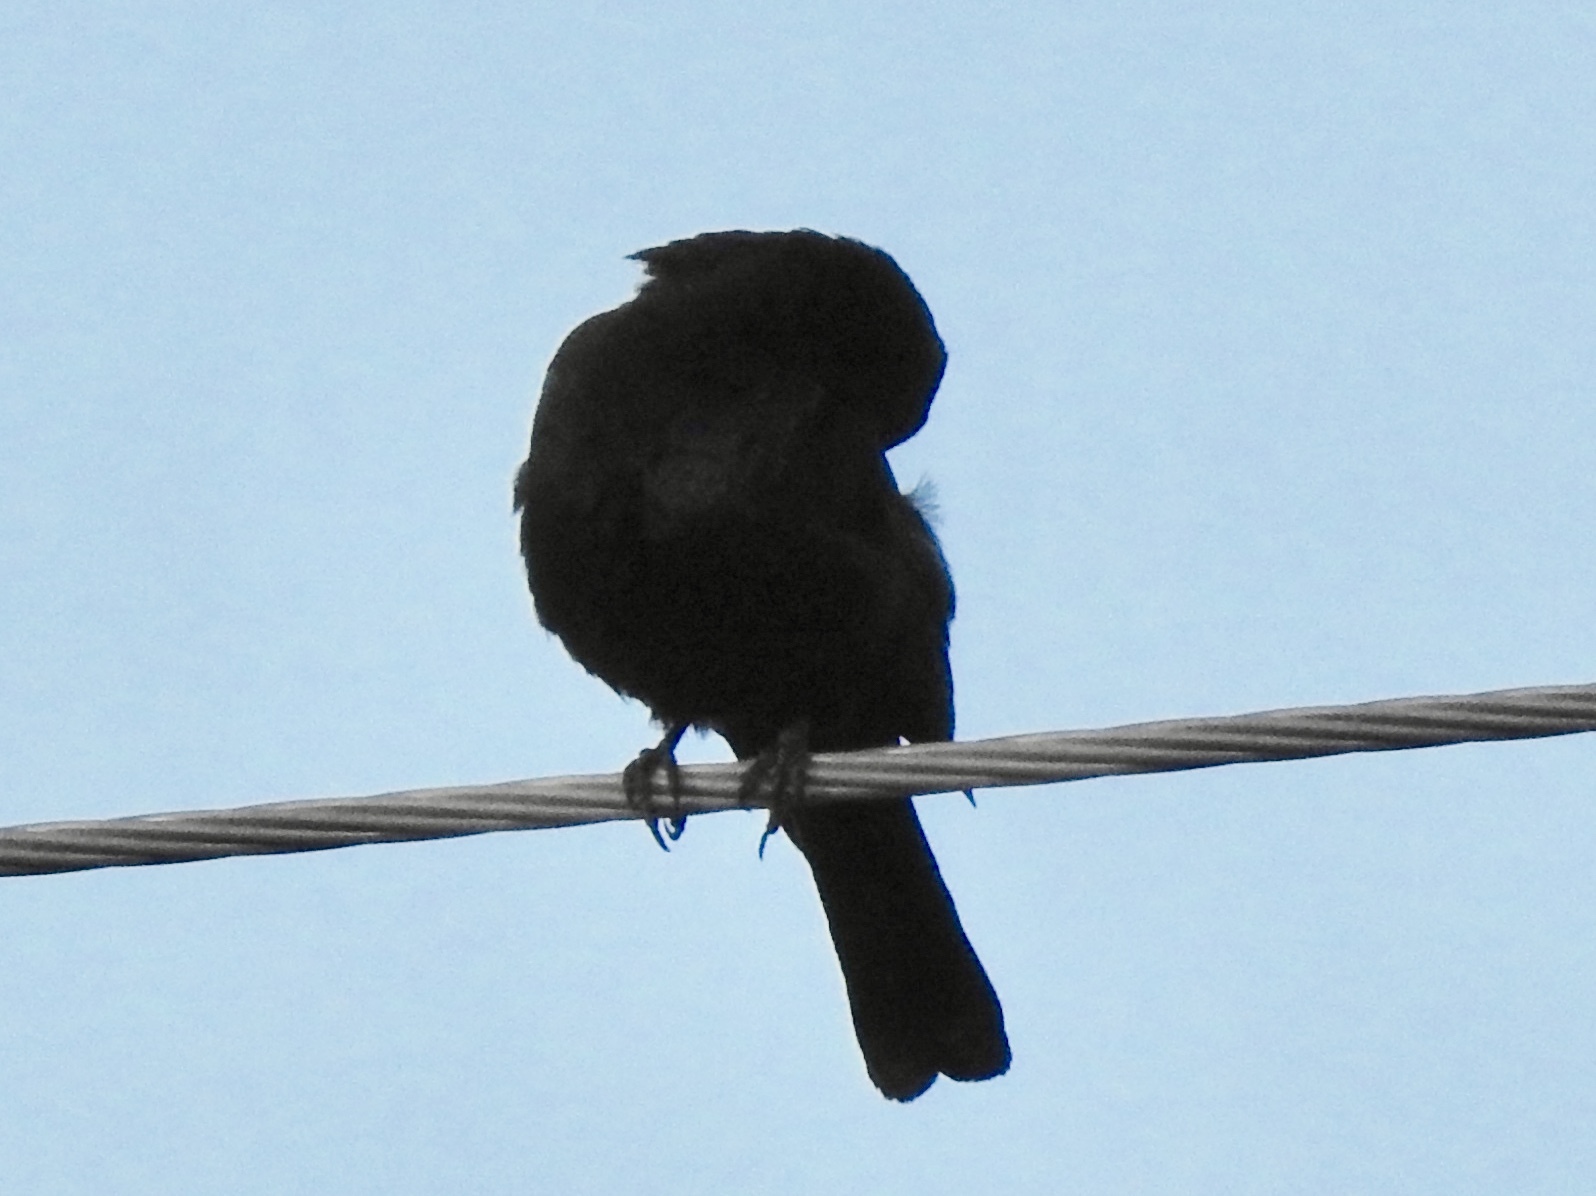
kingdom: Animalia
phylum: Chordata
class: Aves
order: Passeriformes
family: Icteridae
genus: Euphagus
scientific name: Euphagus cyanocephalus
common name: Brewer's blackbird
